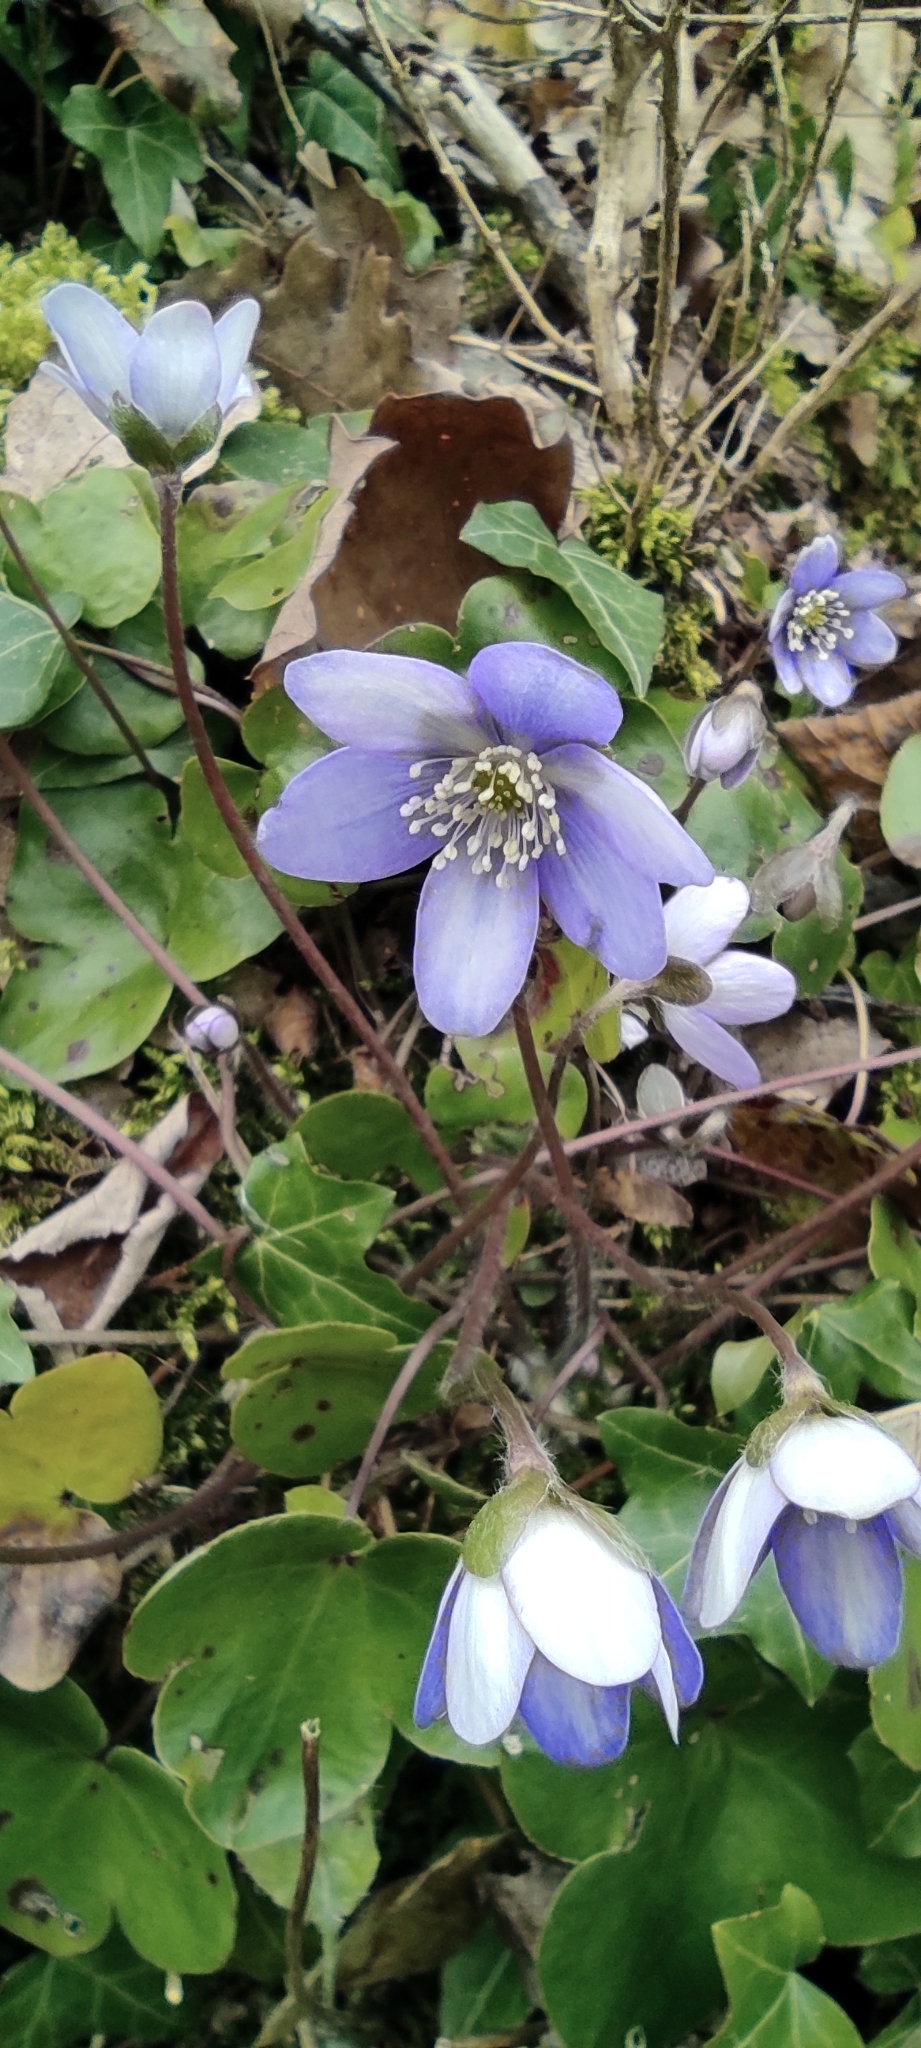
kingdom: Plantae
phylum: Tracheophyta
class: Magnoliopsida
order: Ranunculales
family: Ranunculaceae
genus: Hepatica
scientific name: Hepatica nobilis
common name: Liverleaf
